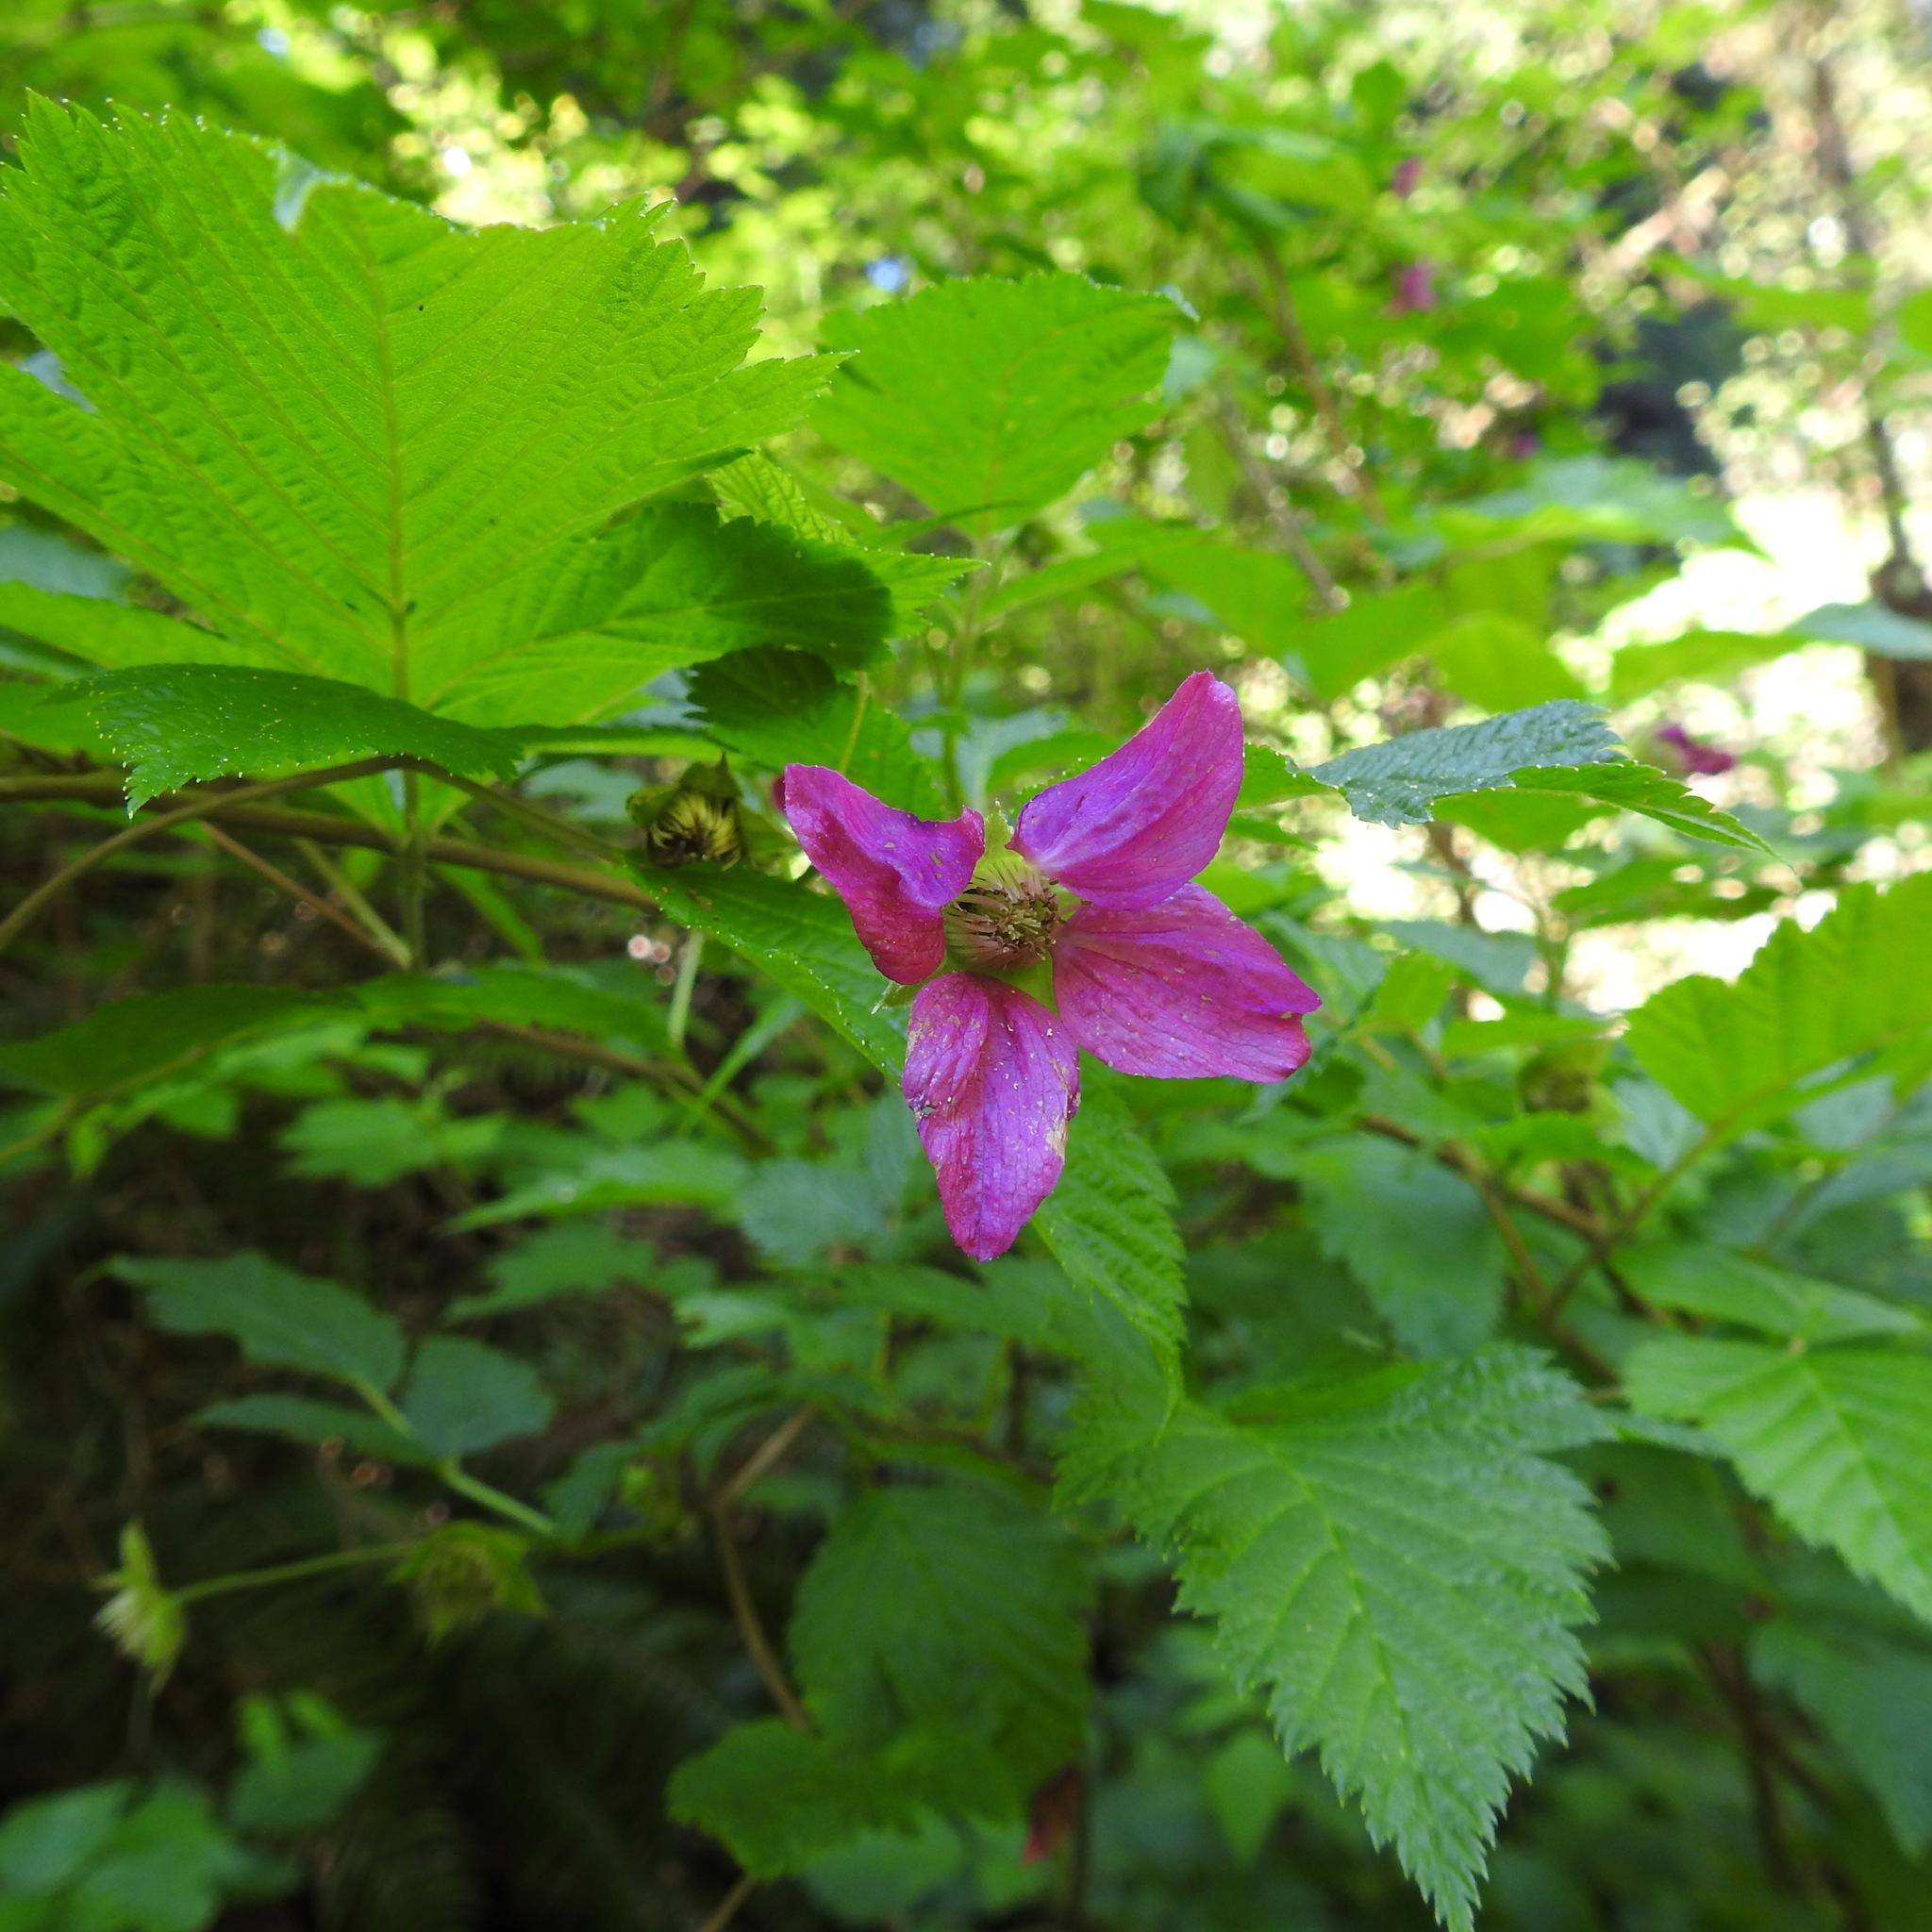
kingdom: Plantae
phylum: Tracheophyta
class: Magnoliopsida
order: Rosales
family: Rosaceae
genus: Rubus
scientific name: Rubus spectabilis
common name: Salmonberry
